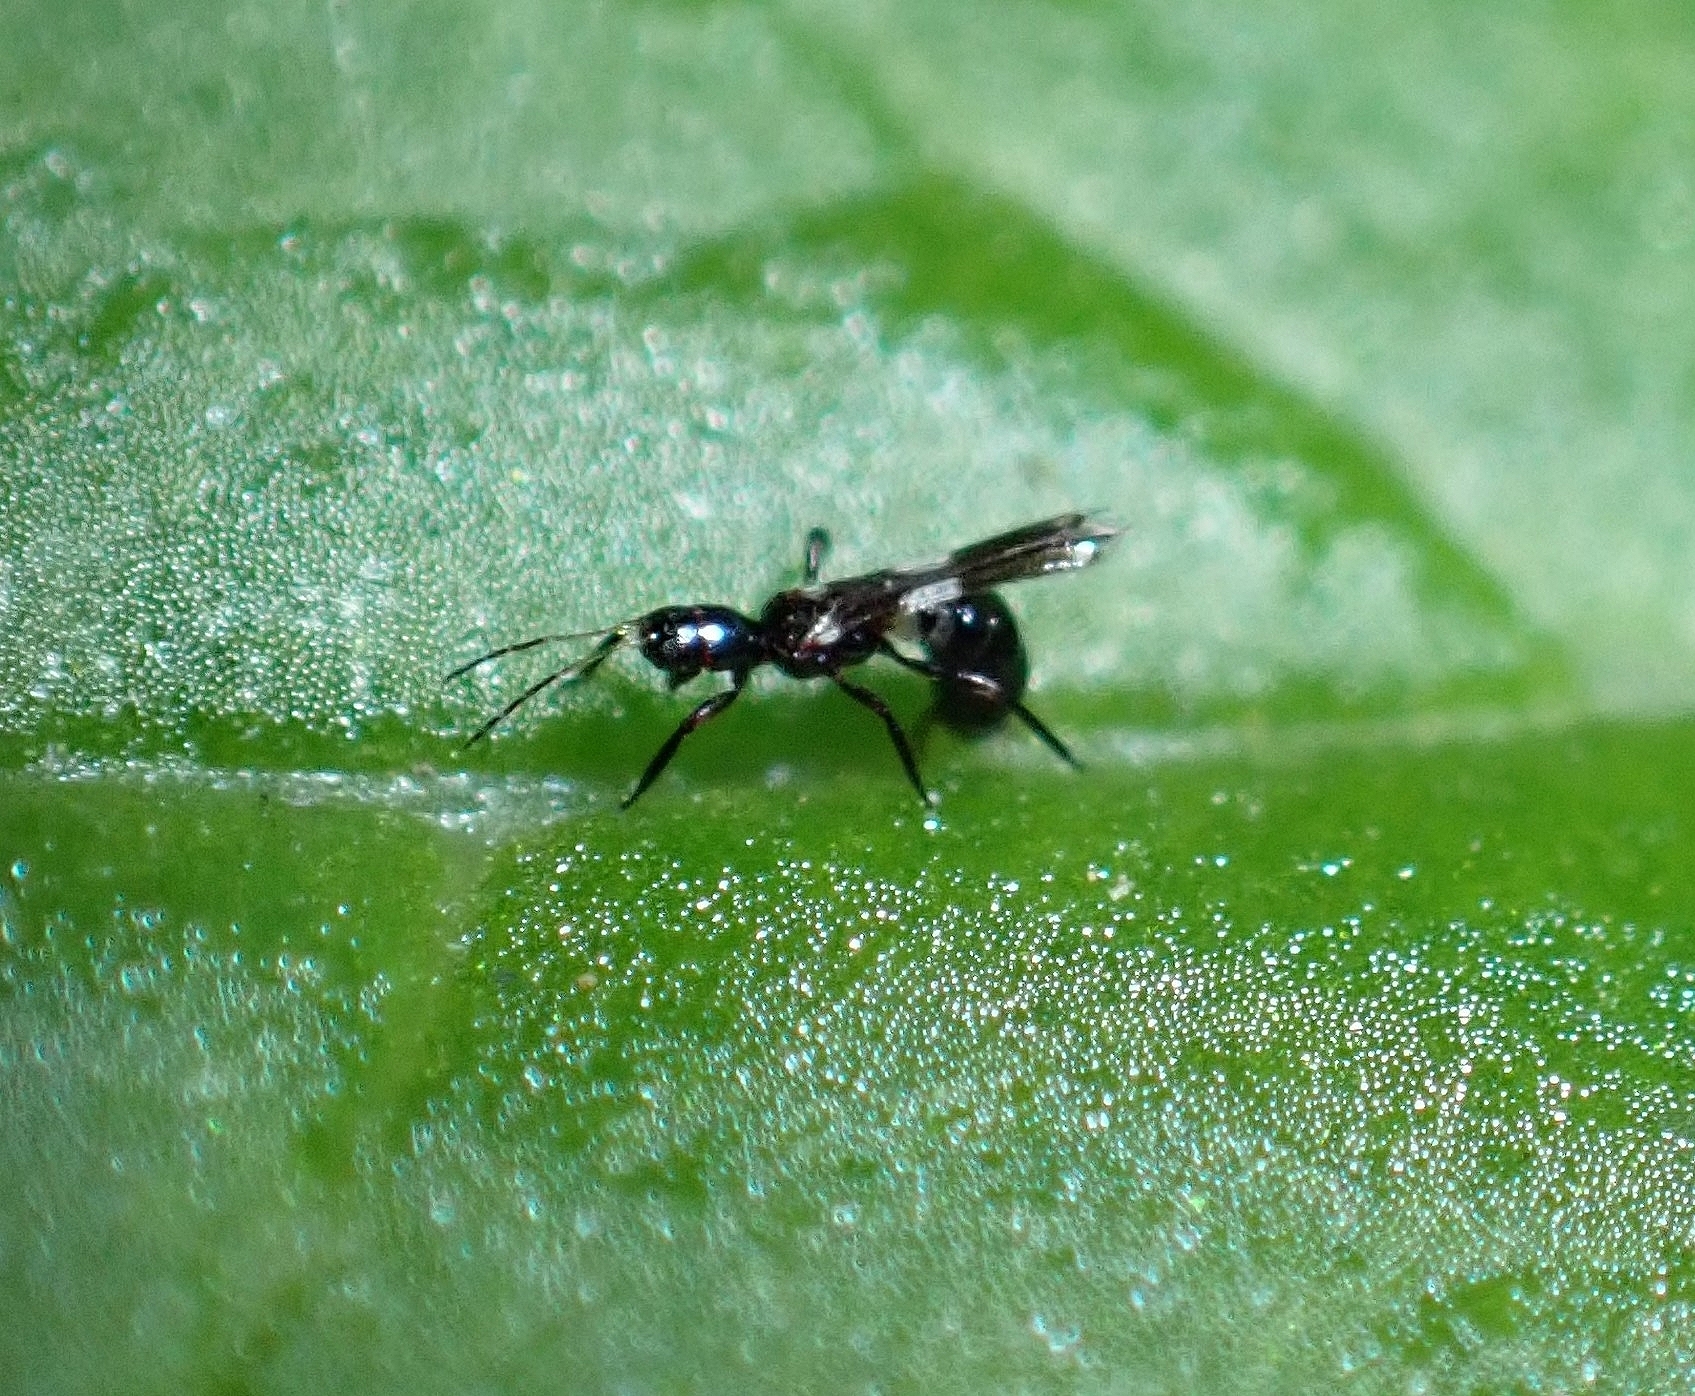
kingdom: Animalia
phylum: Arthropoda
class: Insecta
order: Thysanoptera
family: Aeolothripidae
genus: Franklinothrips
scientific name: Franklinothrips vespiformis
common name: Banded thrip
